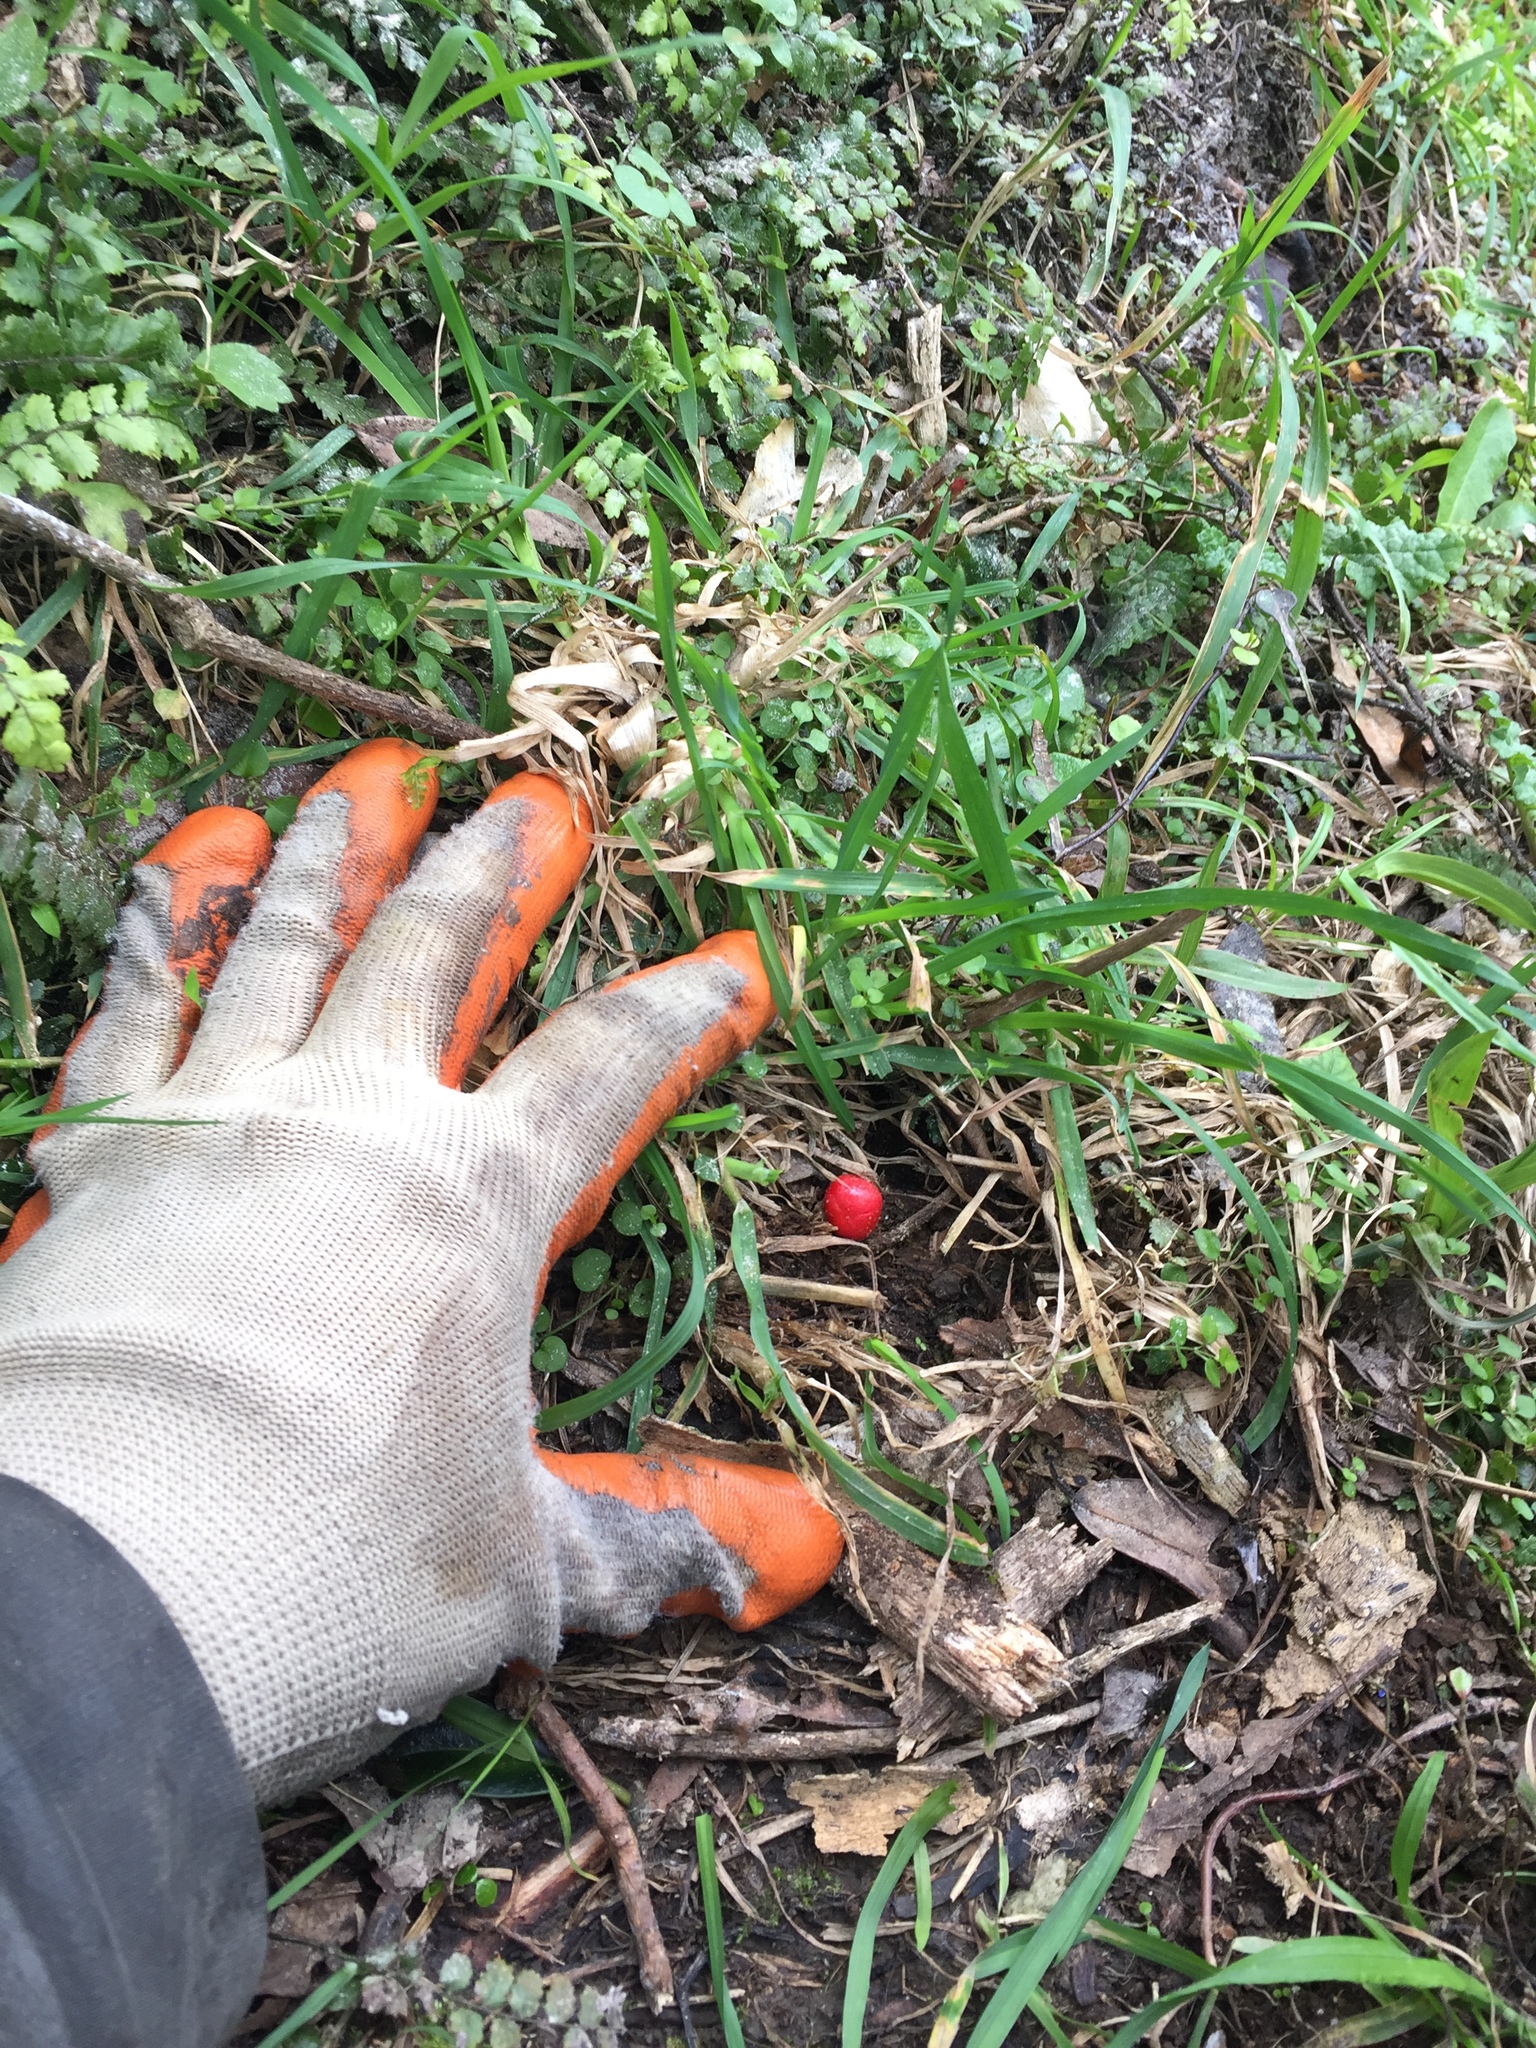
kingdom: Fungi
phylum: Basidiomycota
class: Agaricomycetes
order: Agaricales
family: Strophariaceae
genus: Leratiomyces
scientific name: Leratiomyces erythrocephalus
